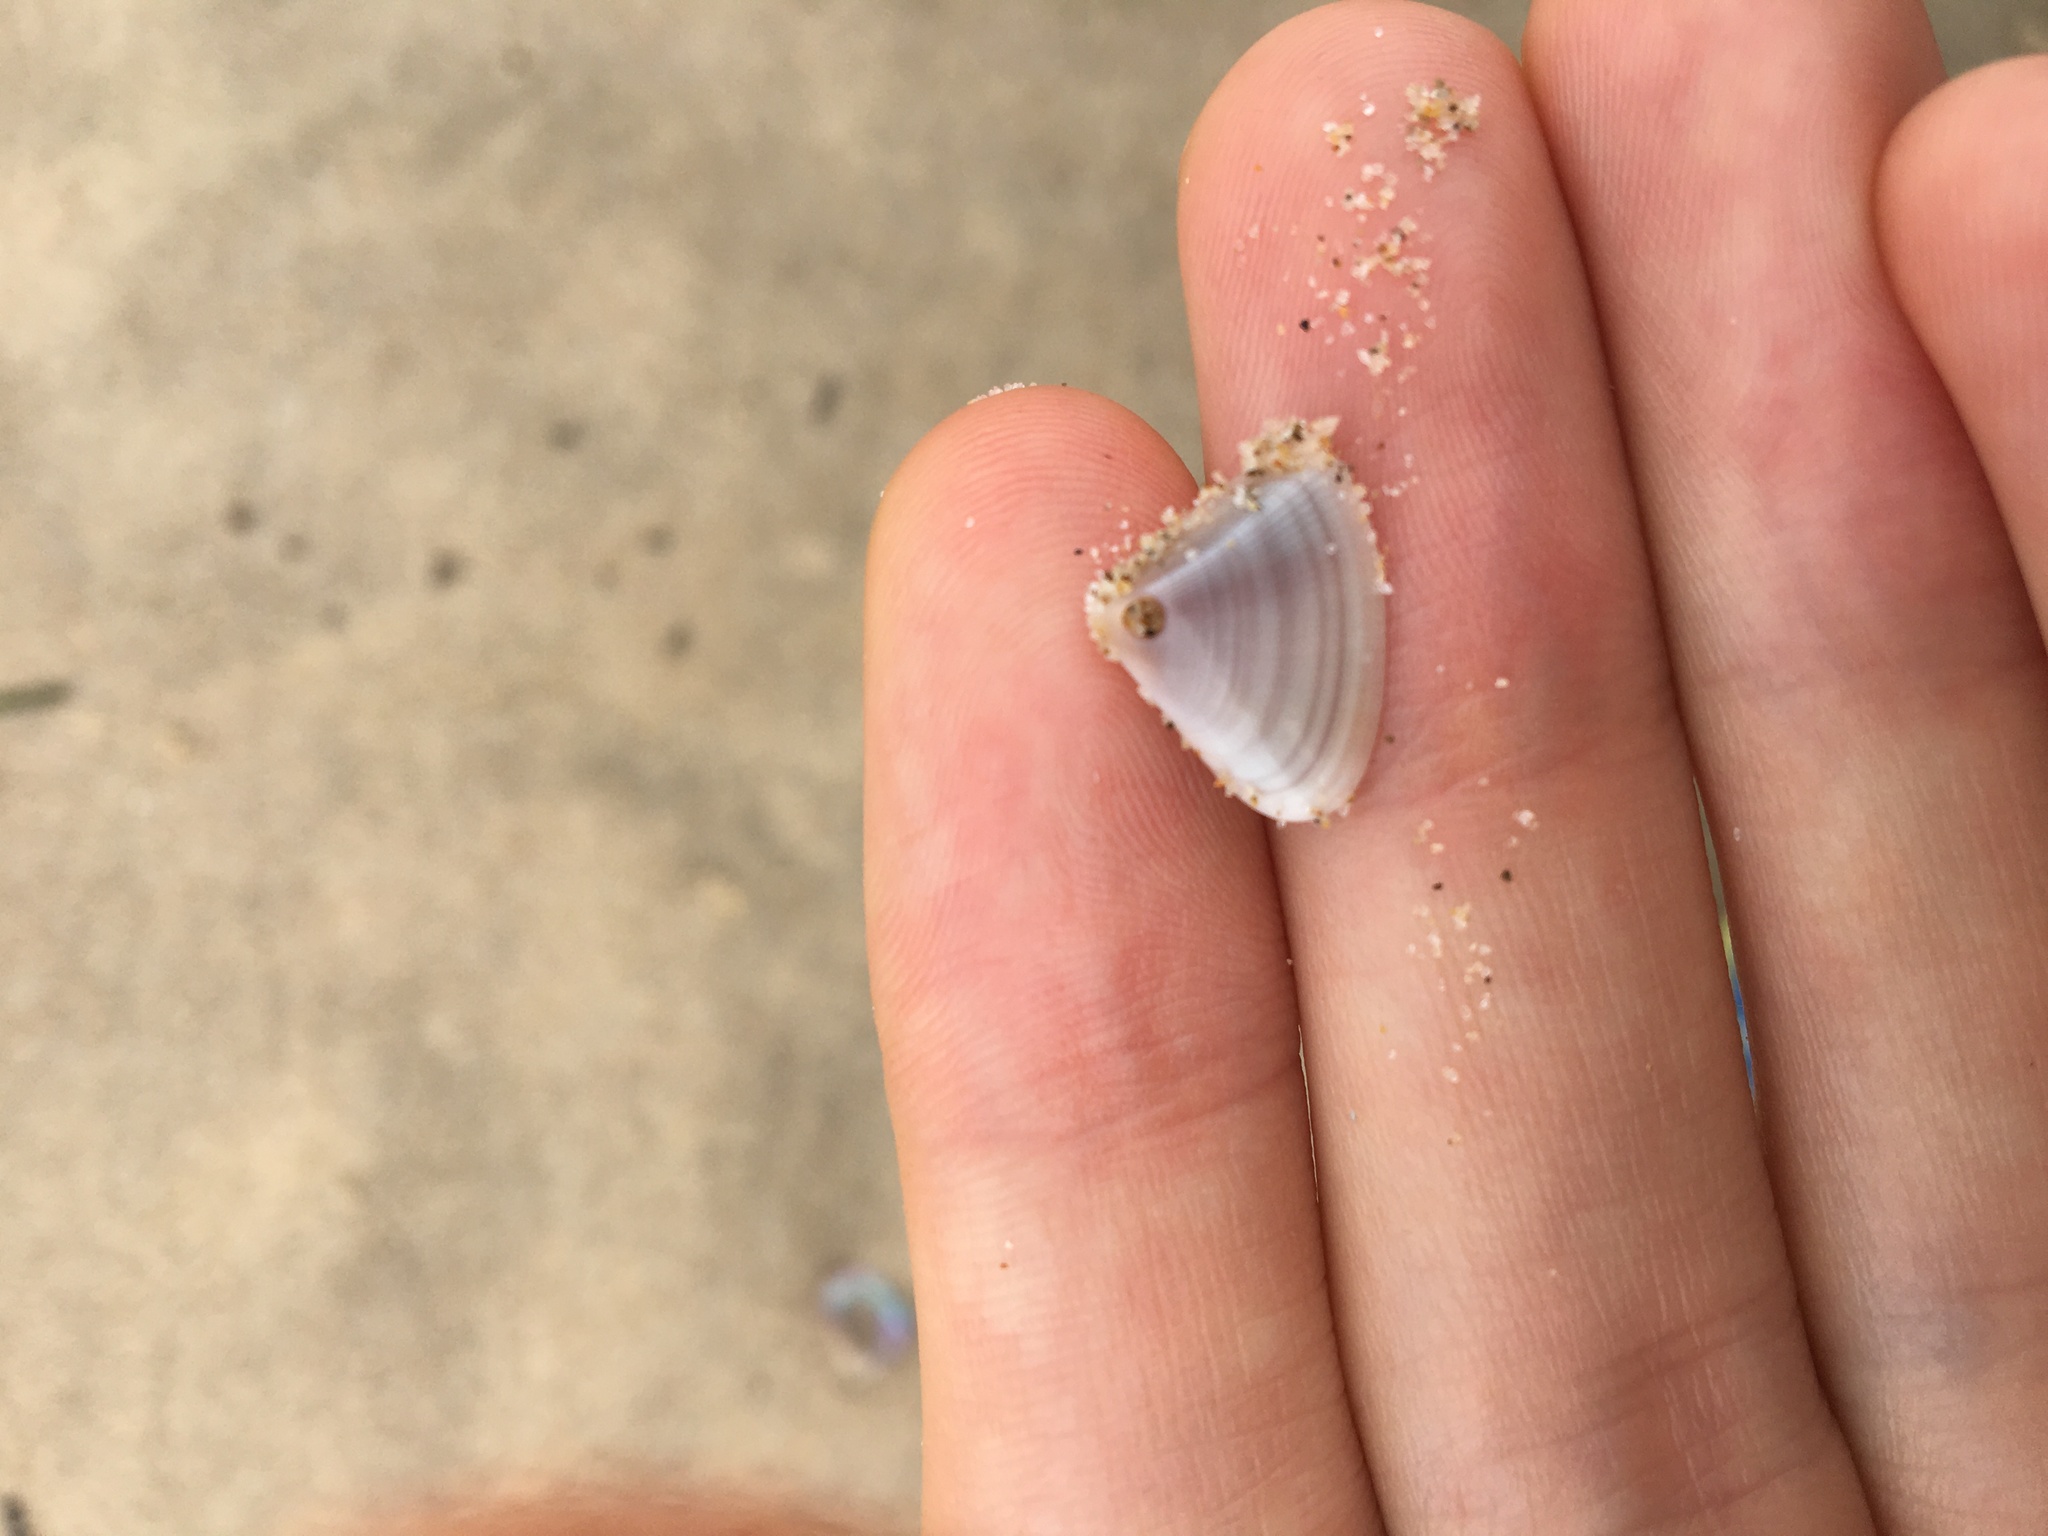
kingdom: Animalia
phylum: Mollusca
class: Bivalvia
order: Cardiida
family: Donacidae
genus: Donax
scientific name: Donax brazieri
